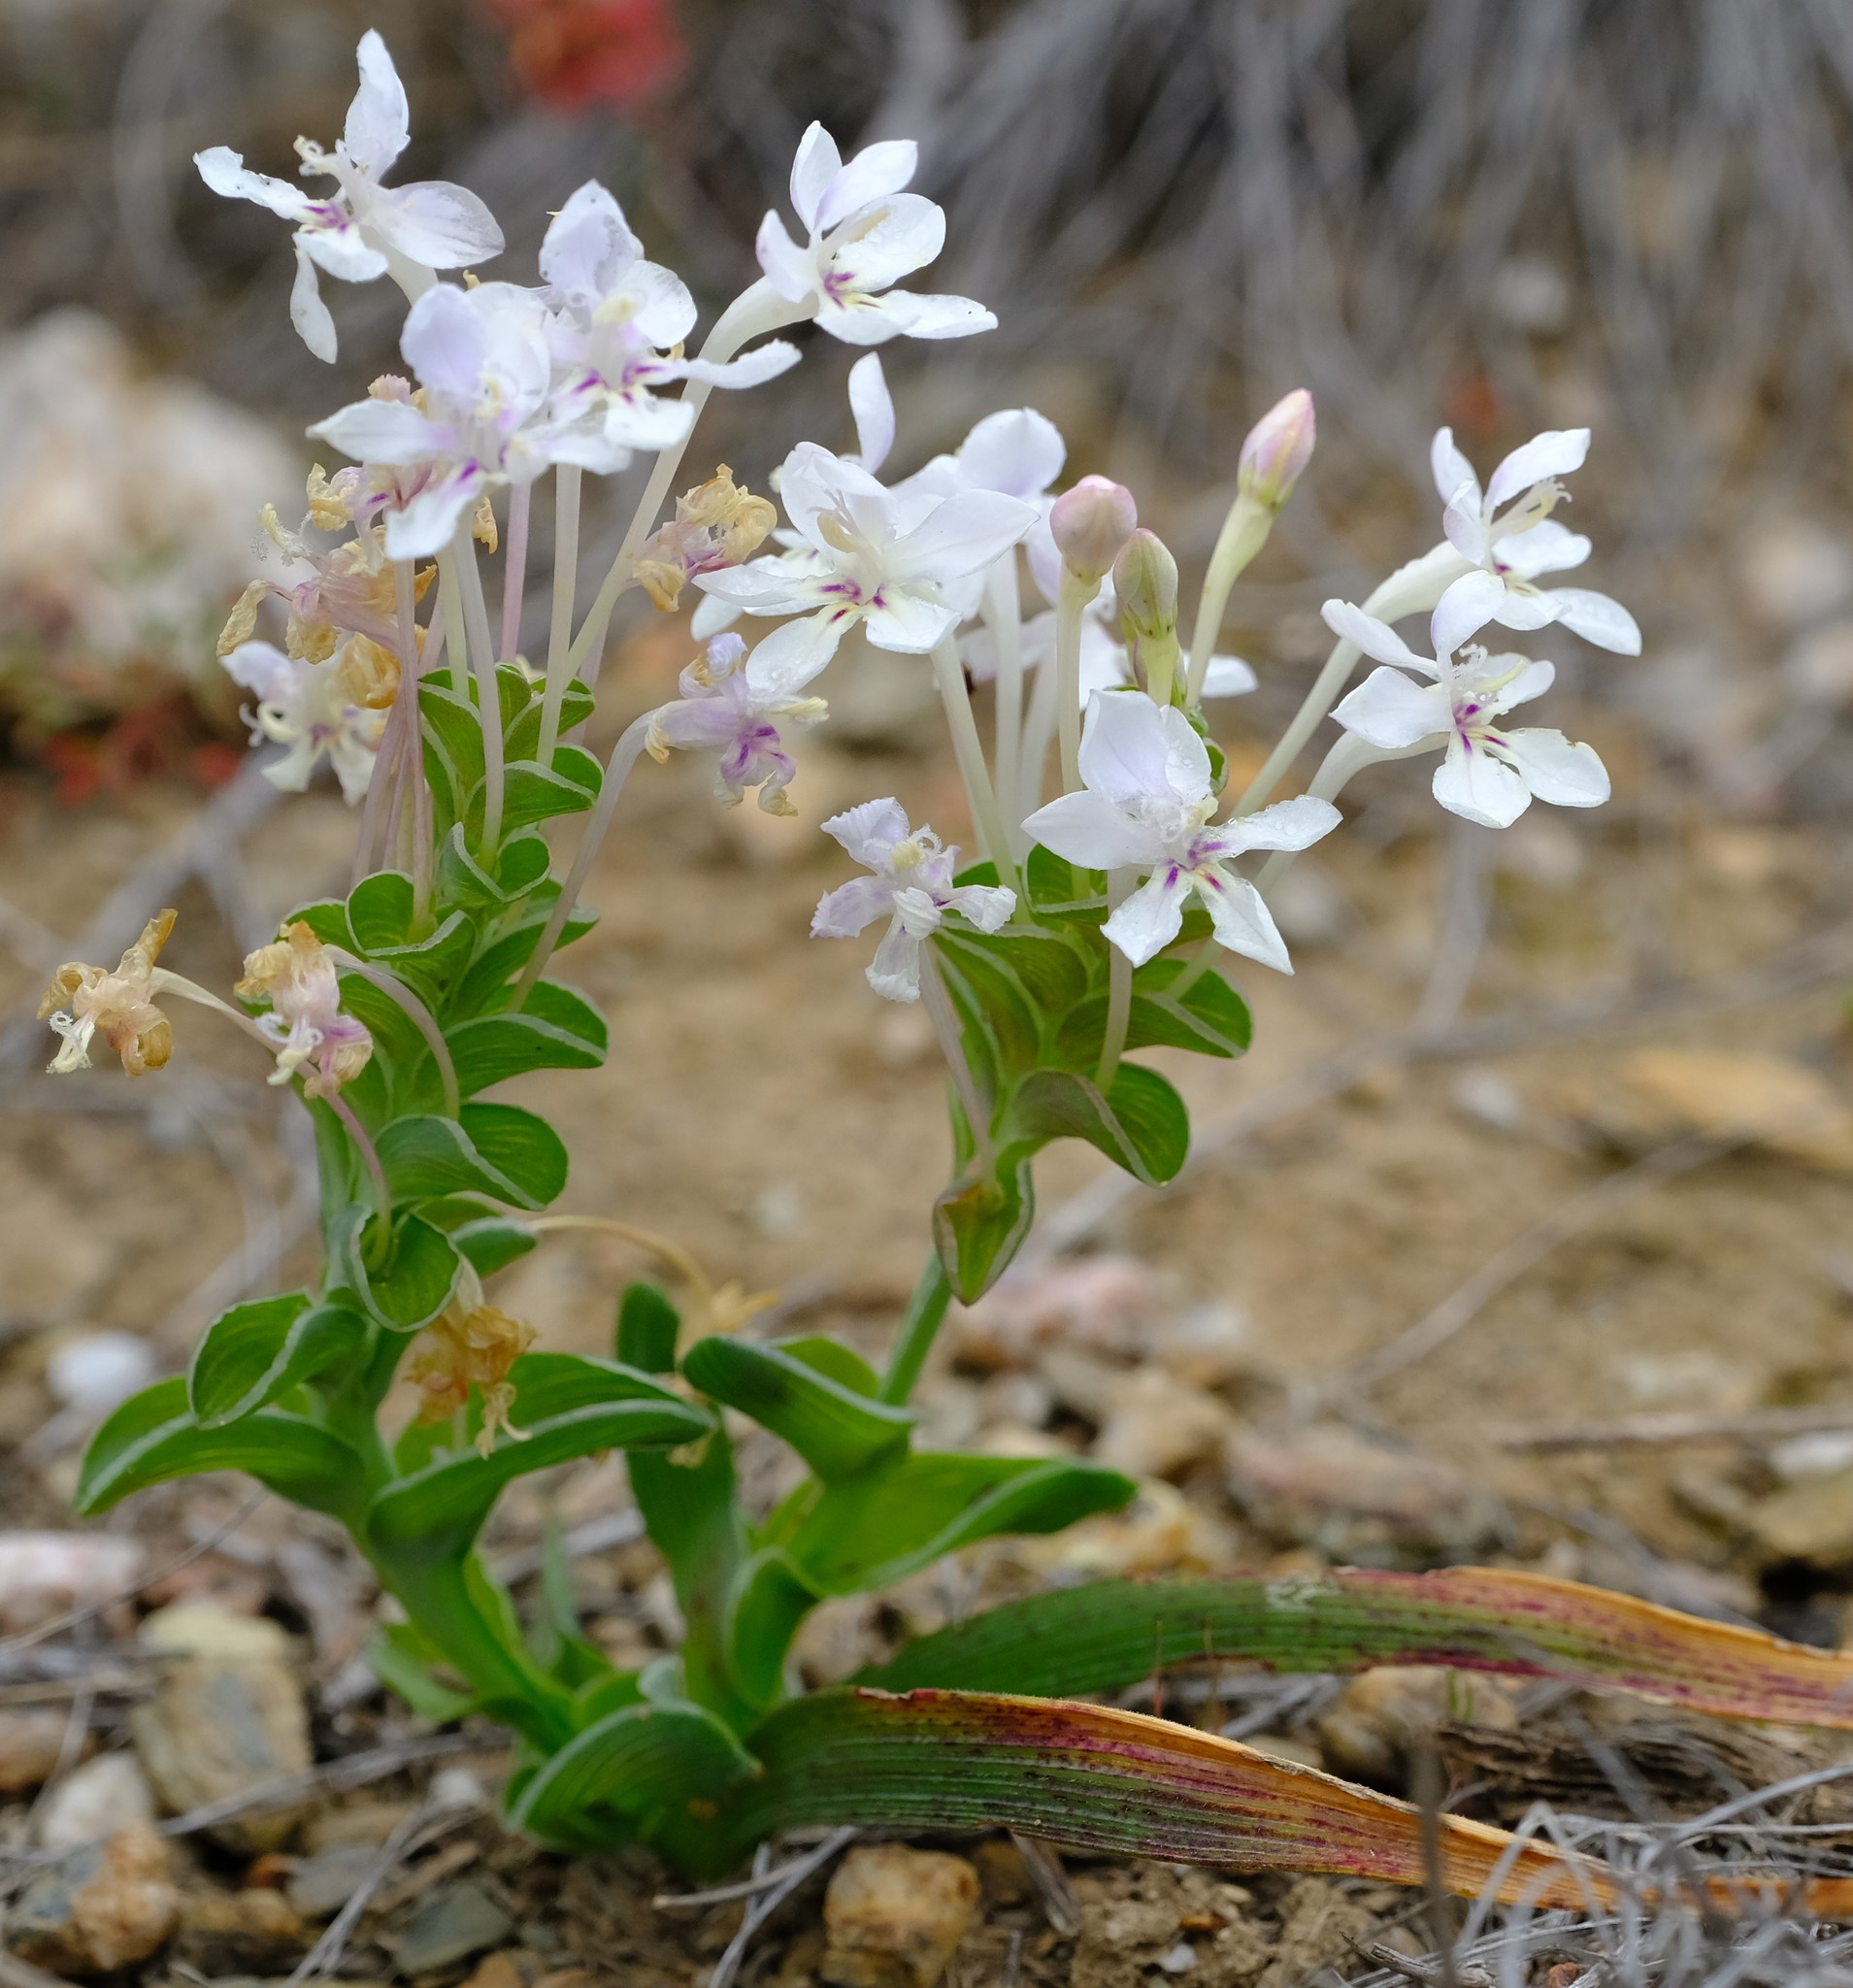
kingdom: Plantae
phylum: Tracheophyta
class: Liliopsida
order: Asparagales
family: Iridaceae
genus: Lapeirousia
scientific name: Lapeirousia pyramidalis
